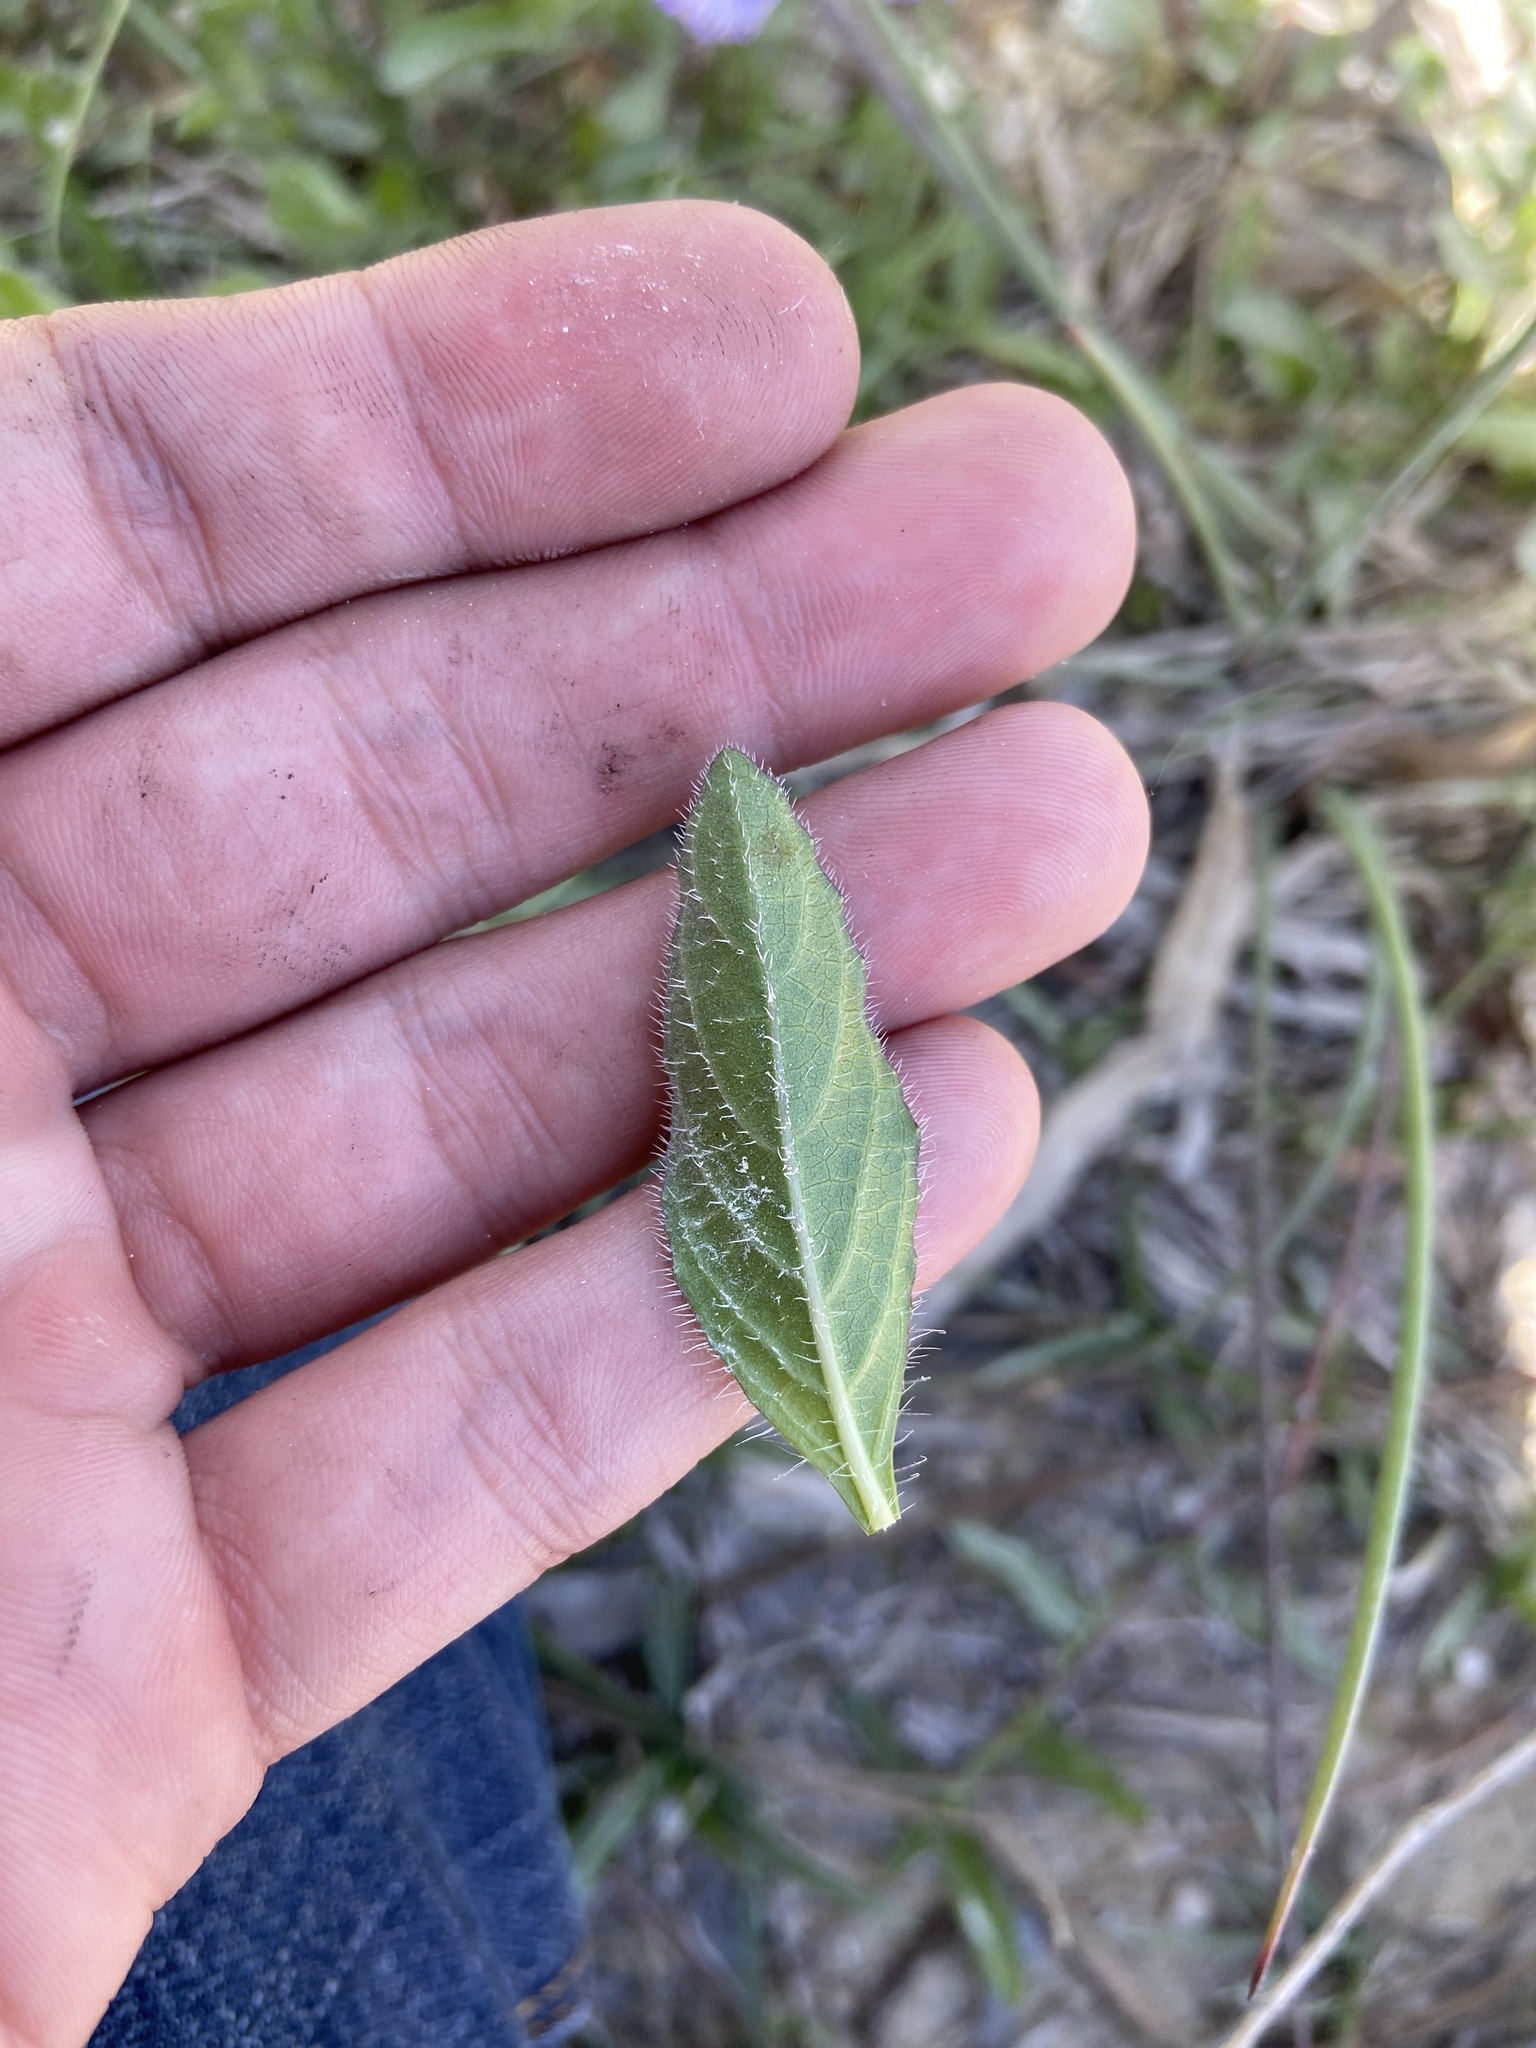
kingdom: Plantae
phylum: Tracheophyta
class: Magnoliopsida
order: Lamiales
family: Acanthaceae
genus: Ruellia
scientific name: Ruellia caroliniensis
